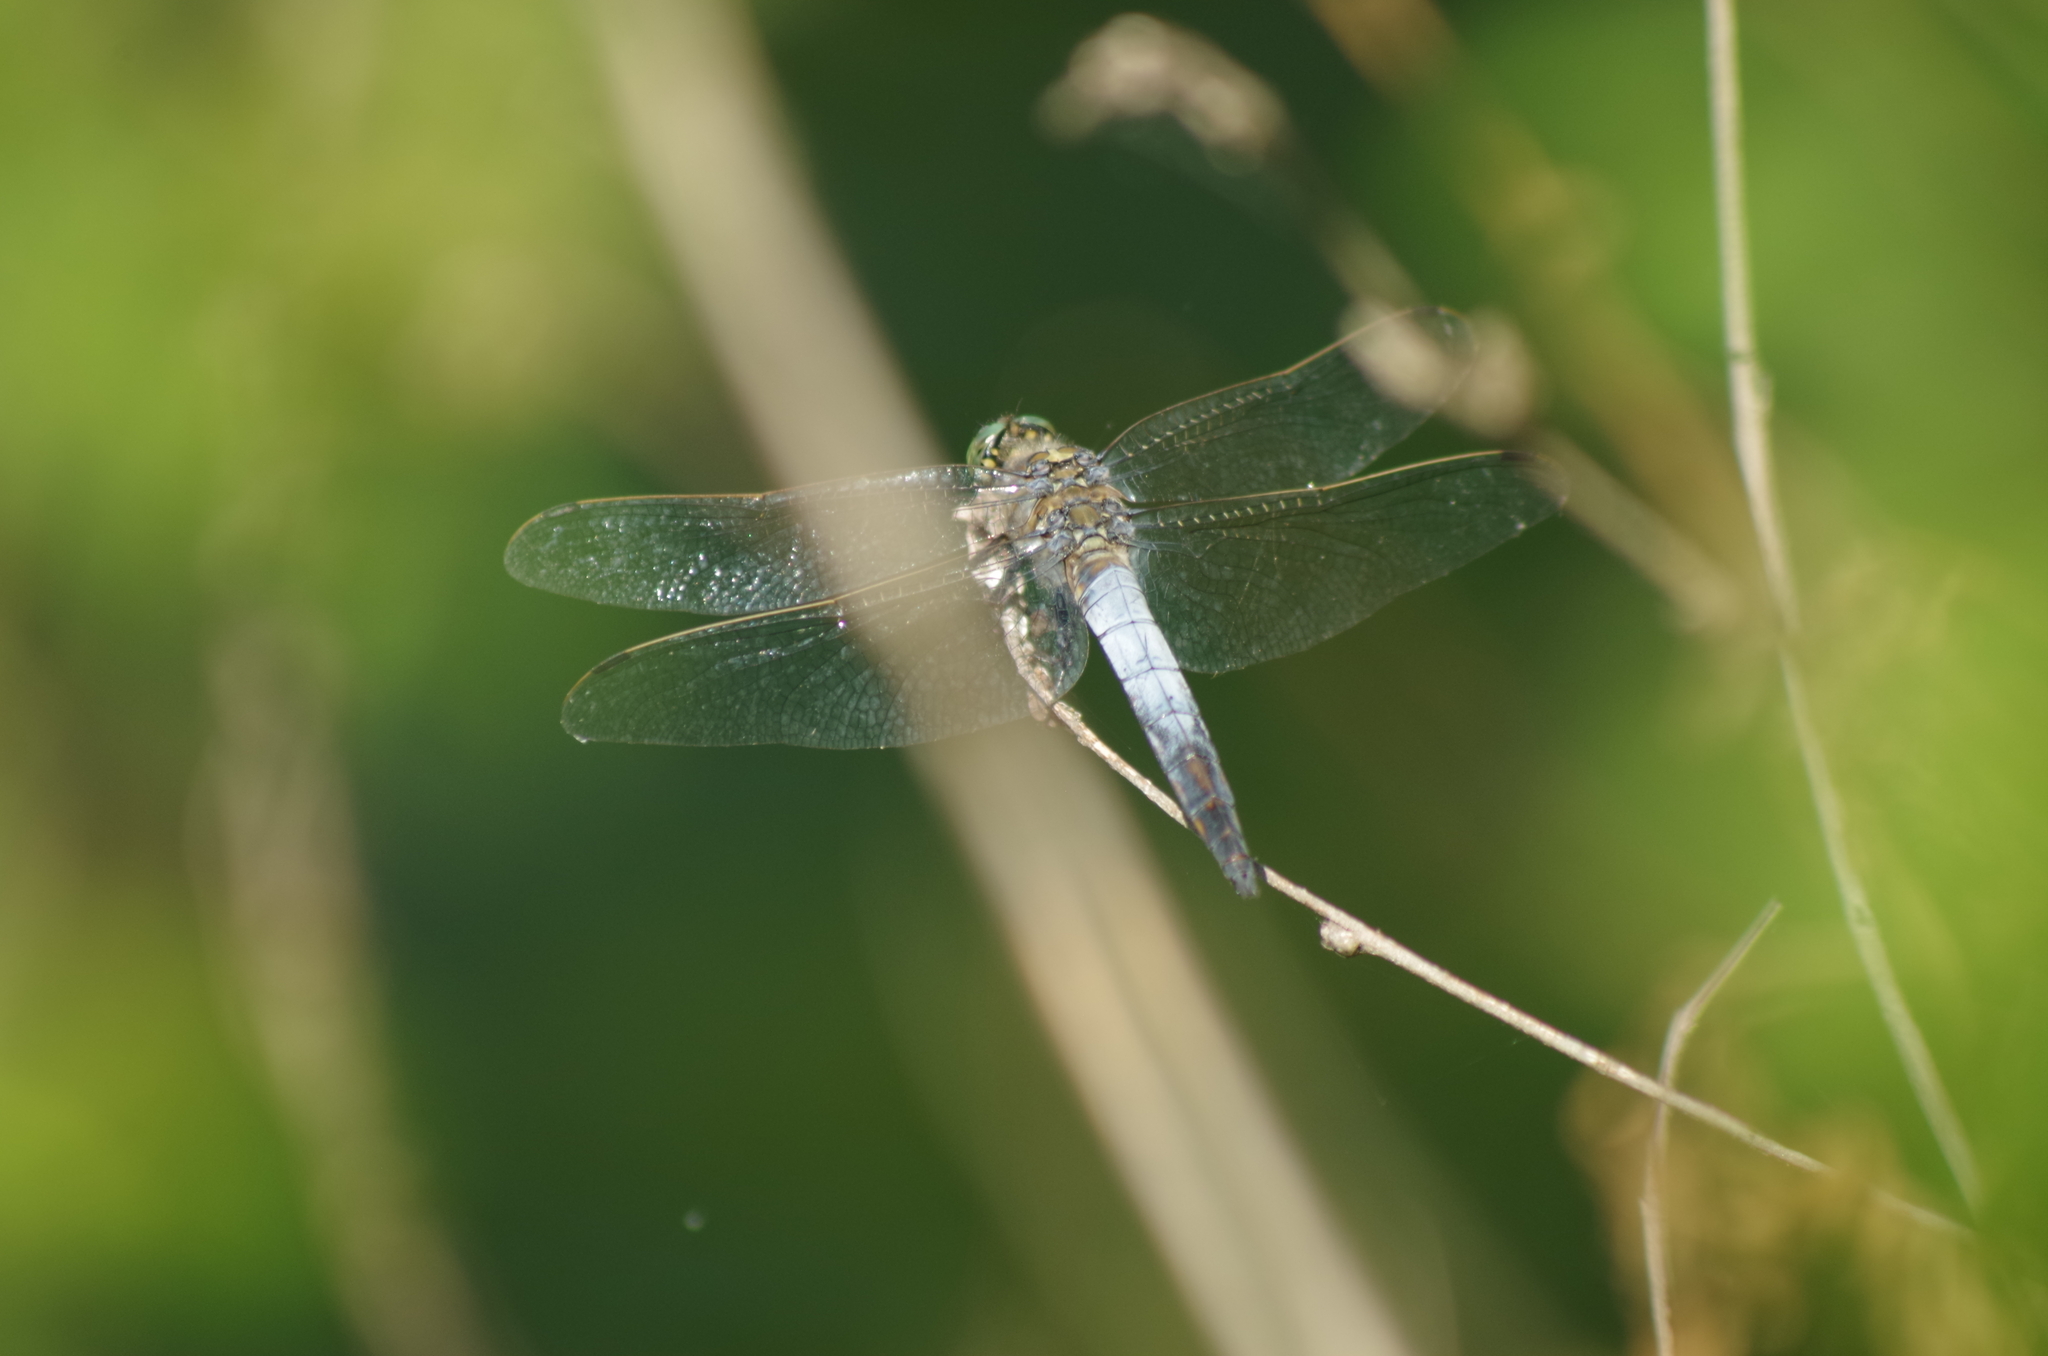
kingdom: Animalia
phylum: Arthropoda
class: Insecta
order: Odonata
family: Libellulidae
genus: Orthetrum
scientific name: Orthetrum cancellatum
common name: Black-tailed skimmer
